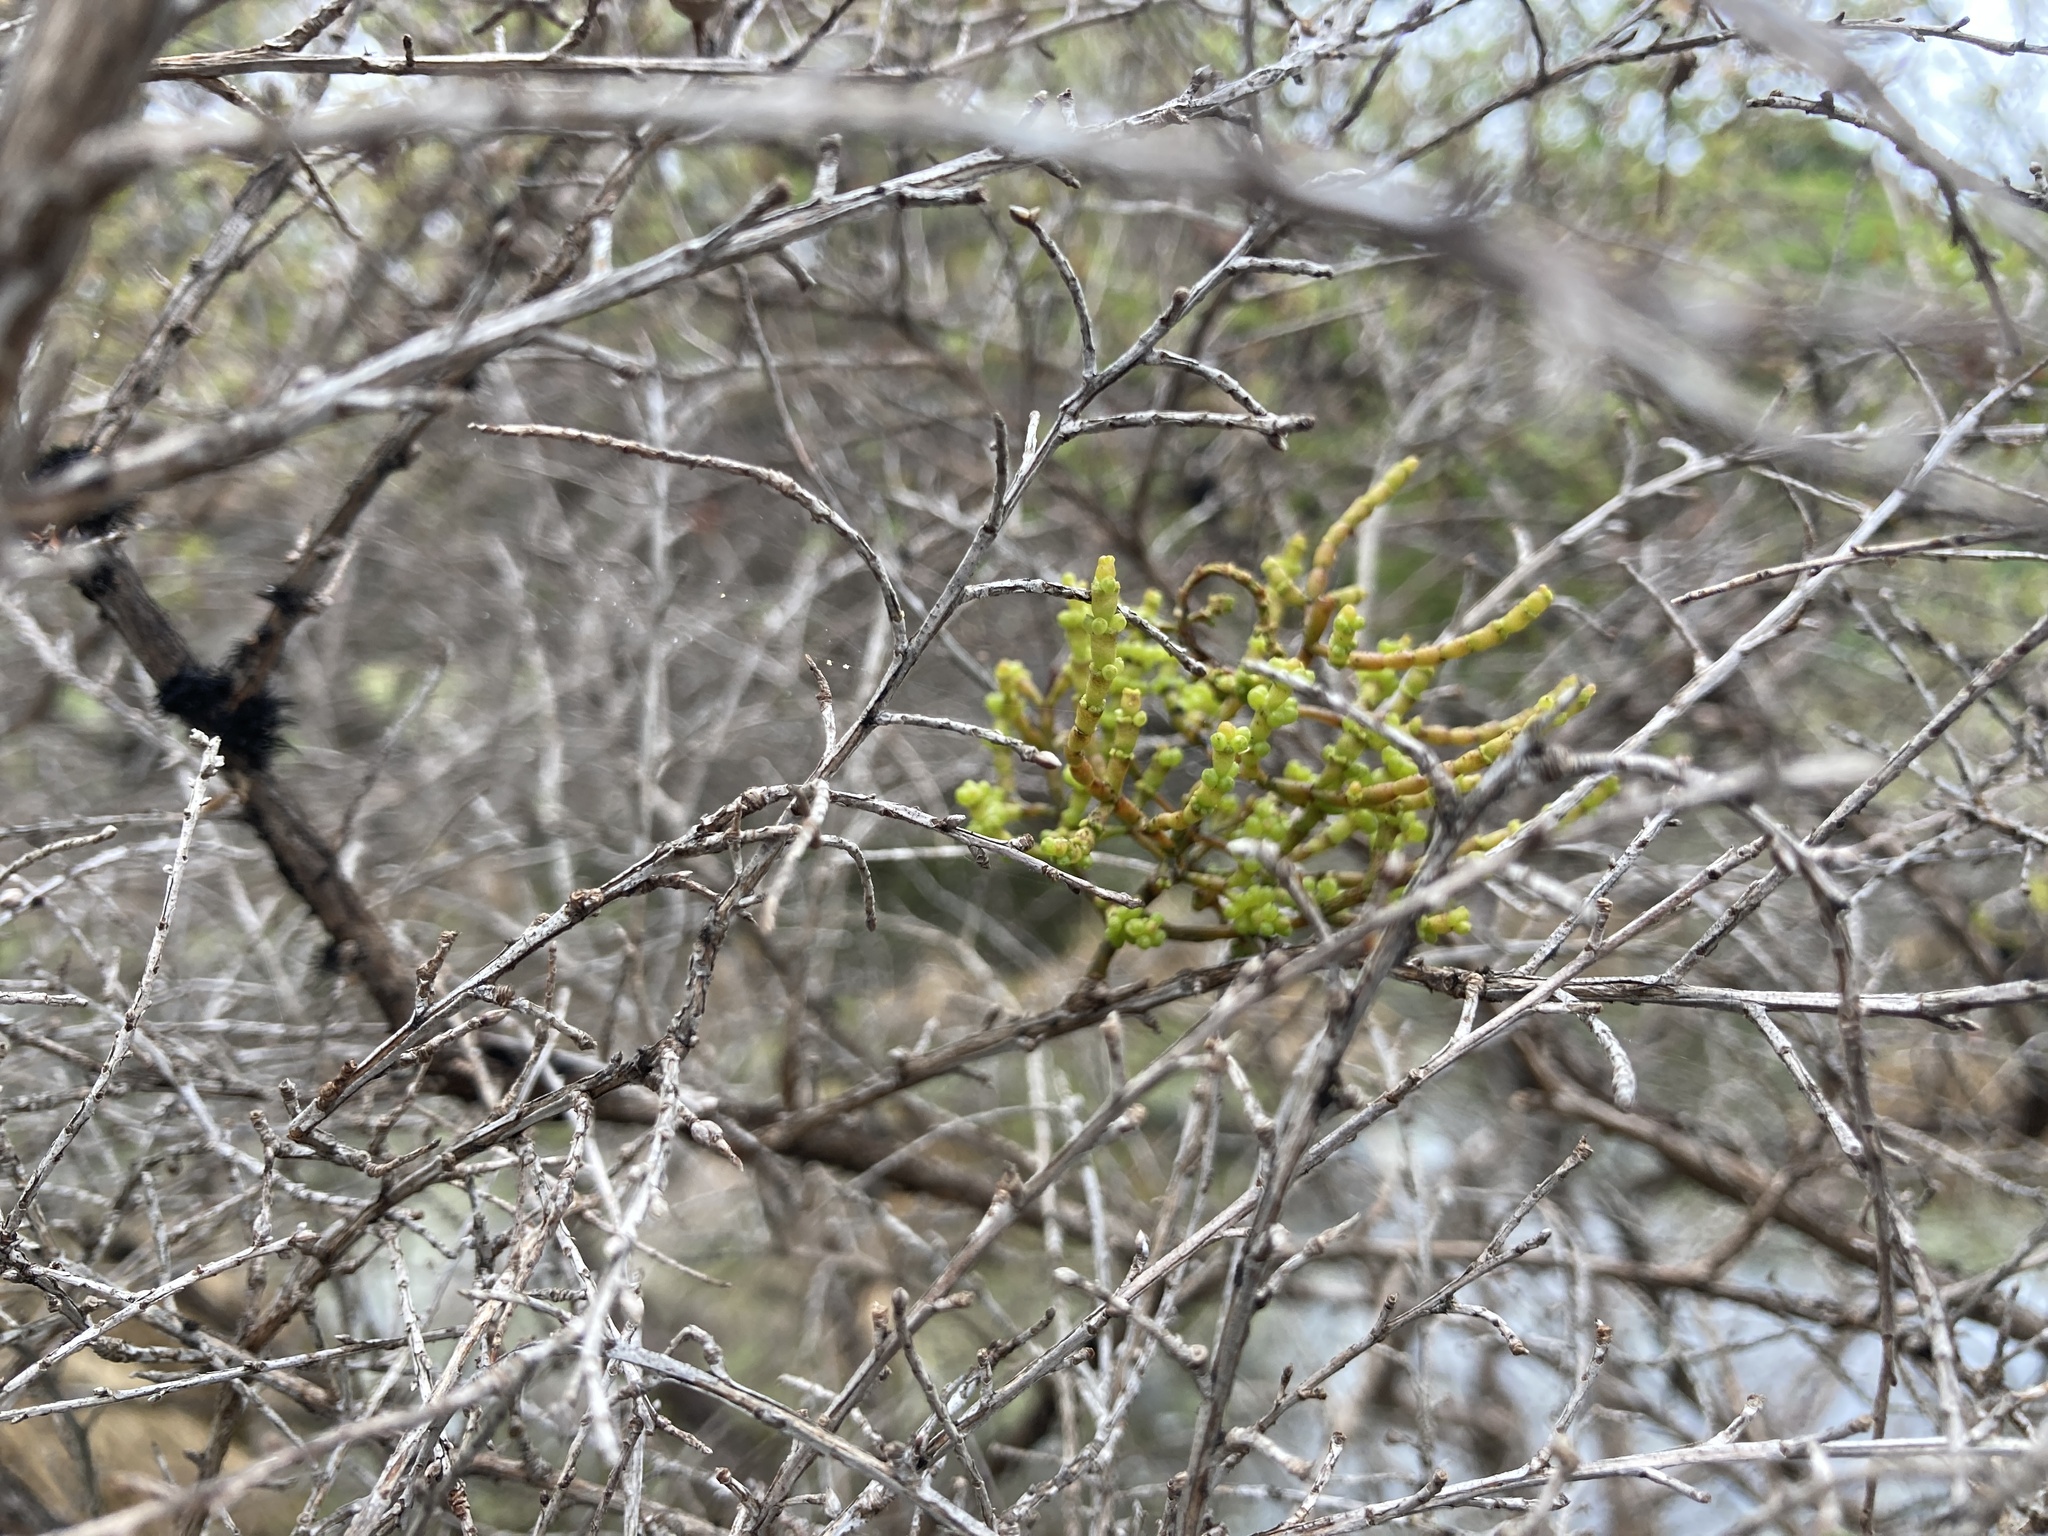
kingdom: Plantae
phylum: Tracheophyta
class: Magnoliopsida
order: Santalales
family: Viscaceae
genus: Korthalsella
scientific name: Korthalsella salicornioides
